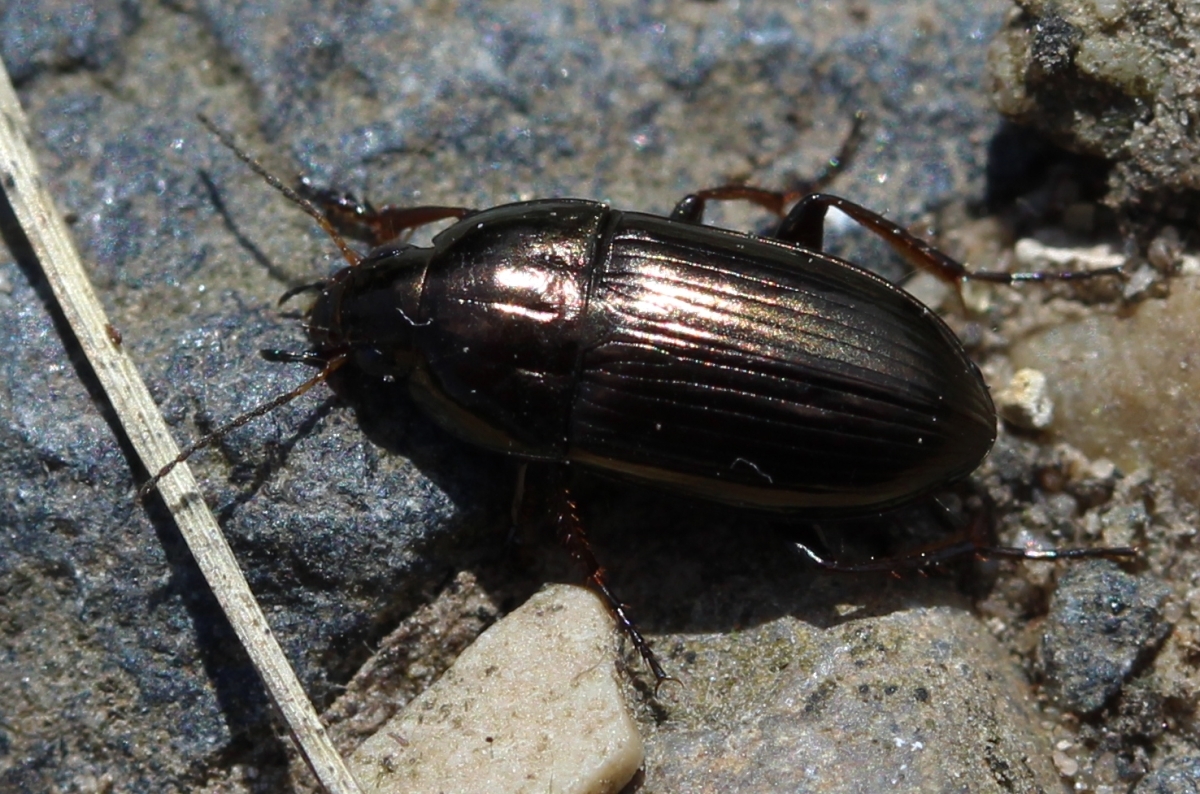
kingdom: Animalia
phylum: Arthropoda
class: Insecta
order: Coleoptera
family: Carabidae
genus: Amara
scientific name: Amara aenea
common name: Common sun beetle
